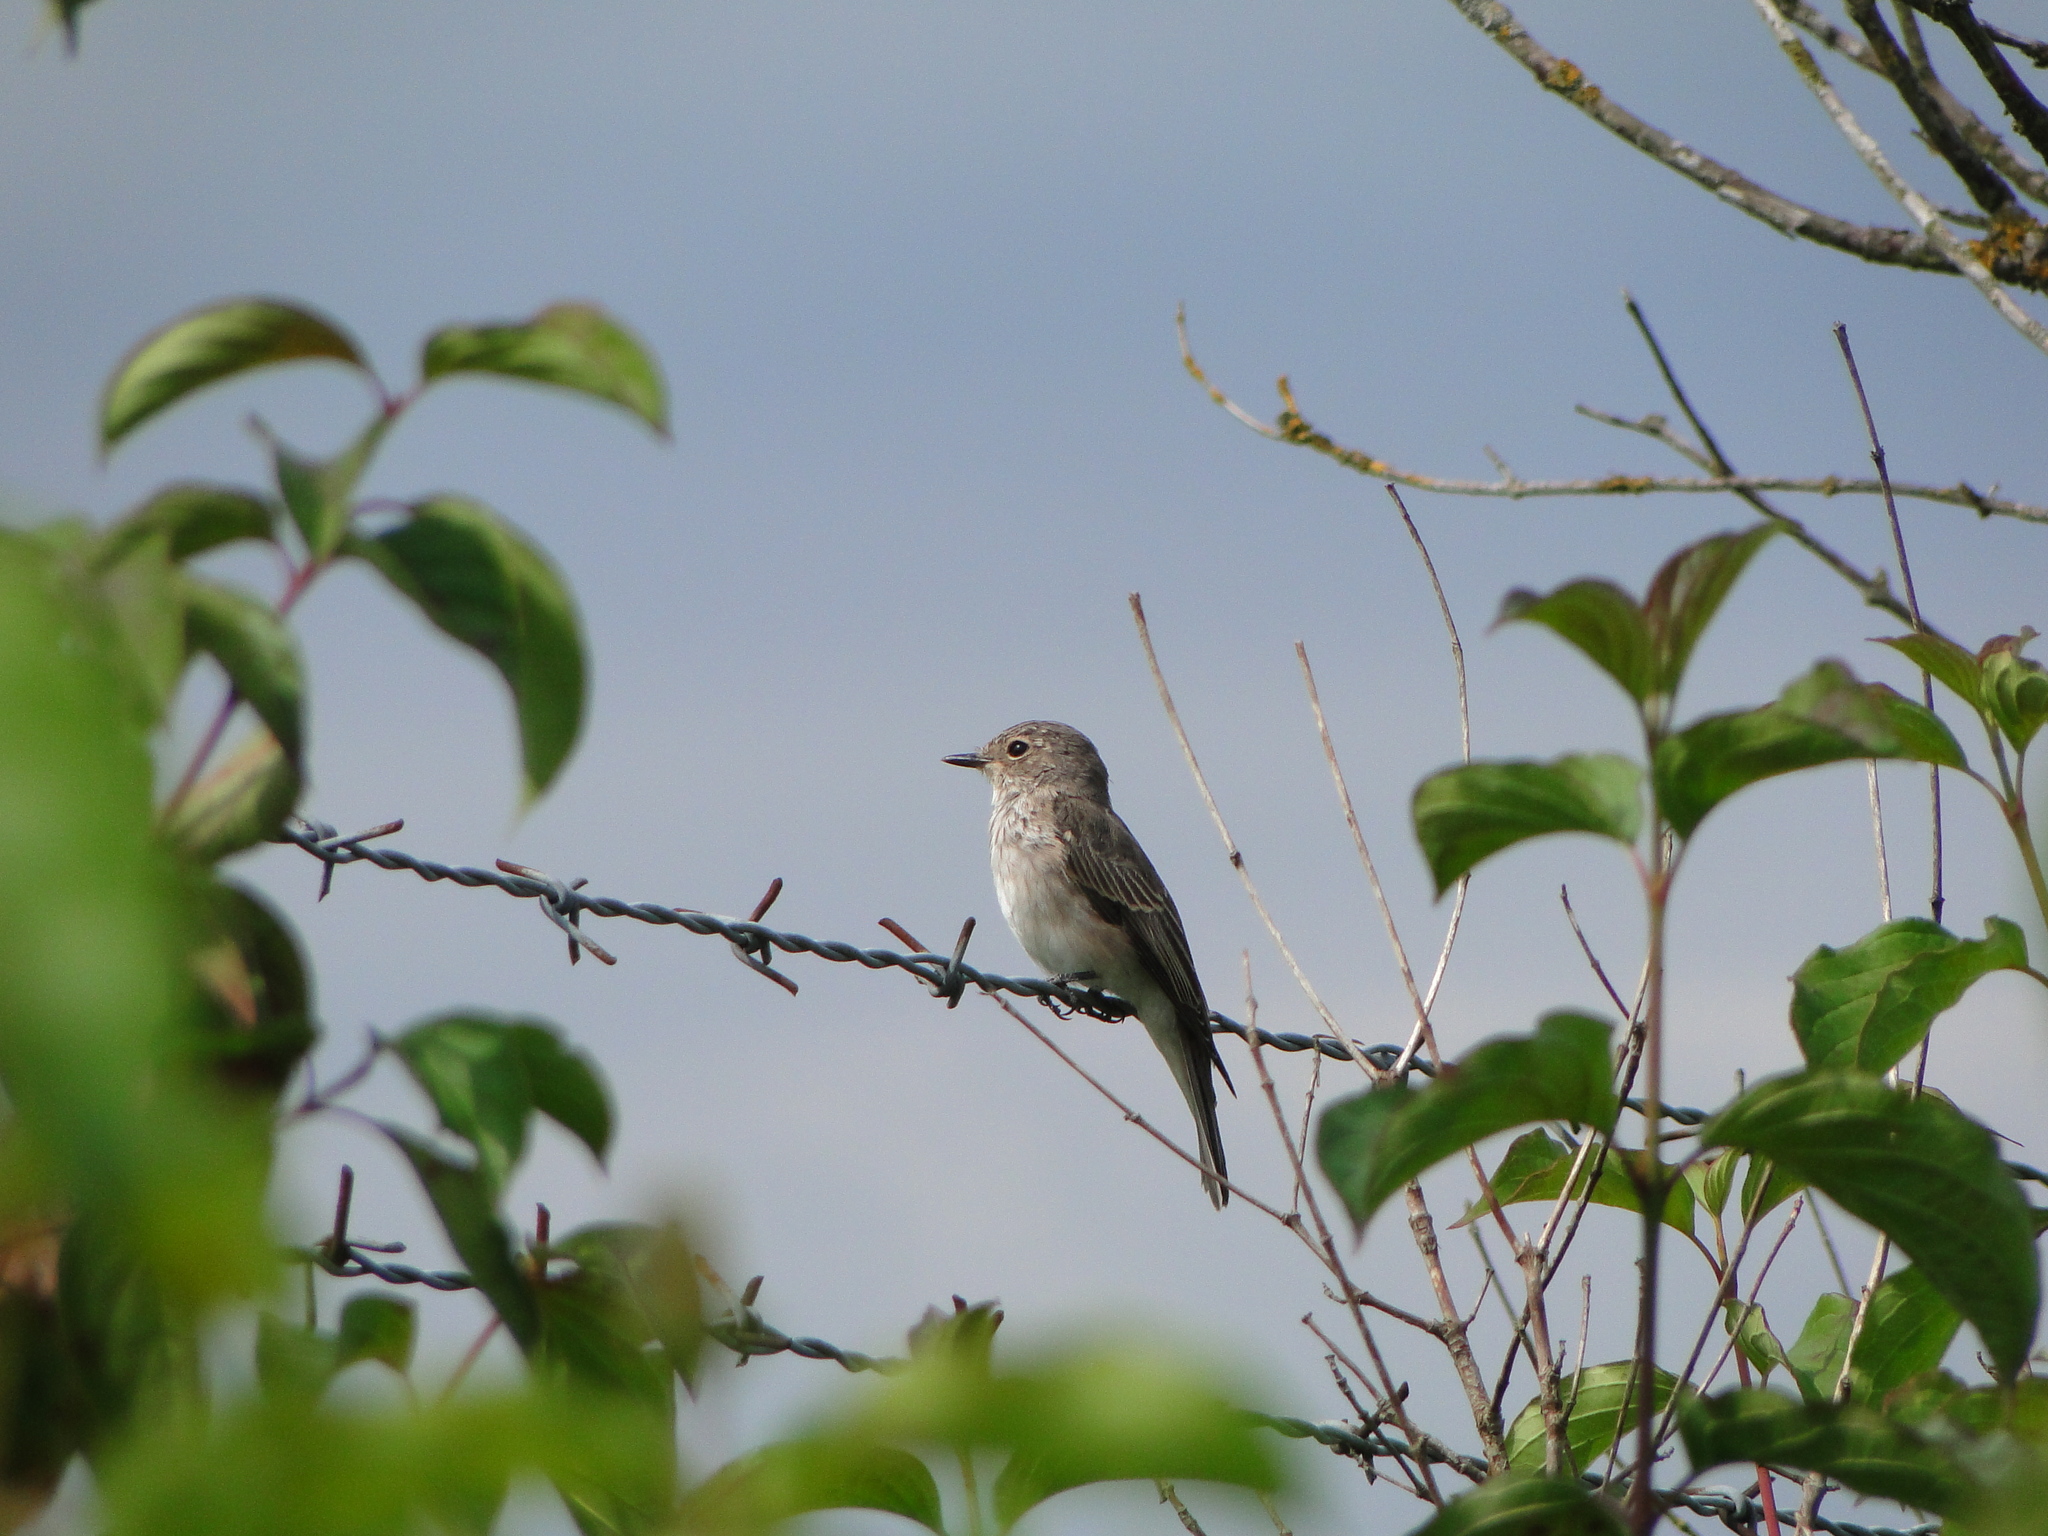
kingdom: Animalia
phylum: Chordata
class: Aves
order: Passeriformes
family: Muscicapidae
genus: Muscicapa
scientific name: Muscicapa striata
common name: Spotted flycatcher
